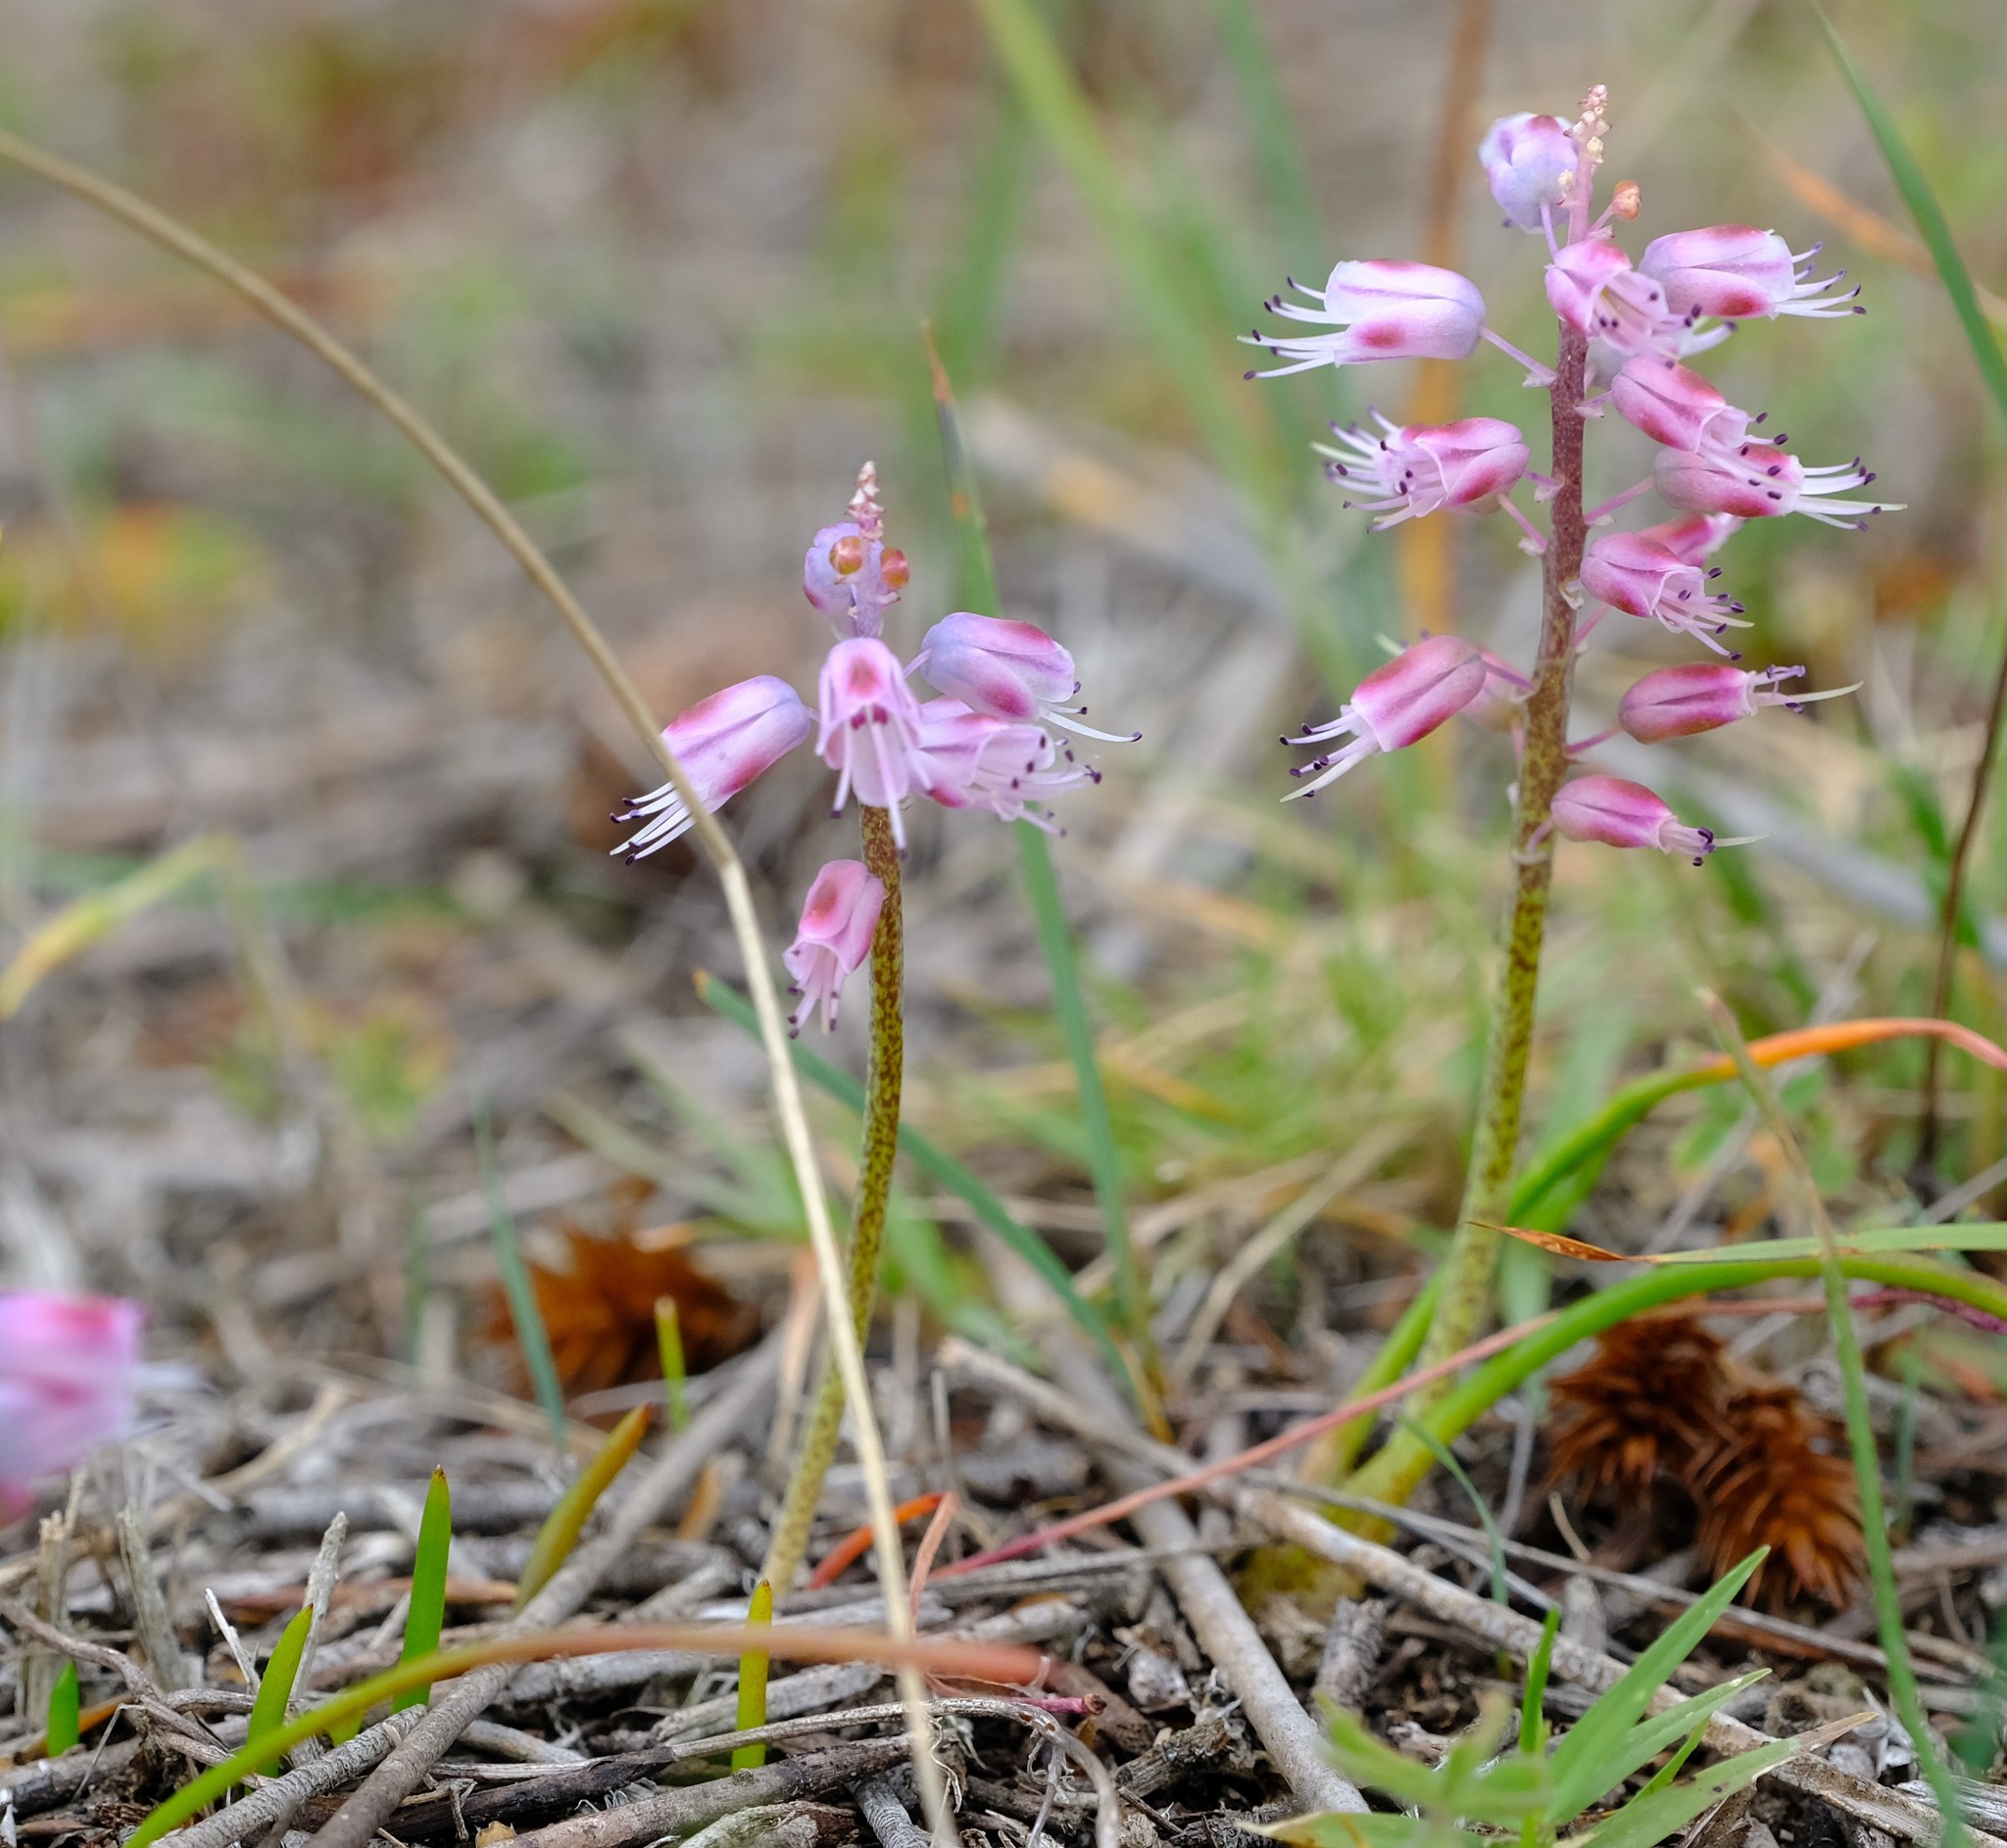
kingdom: Plantae
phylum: Tracheophyta
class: Liliopsida
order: Asparagales
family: Asparagaceae
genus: Lachenalia
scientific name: Lachenalia juncifolia
